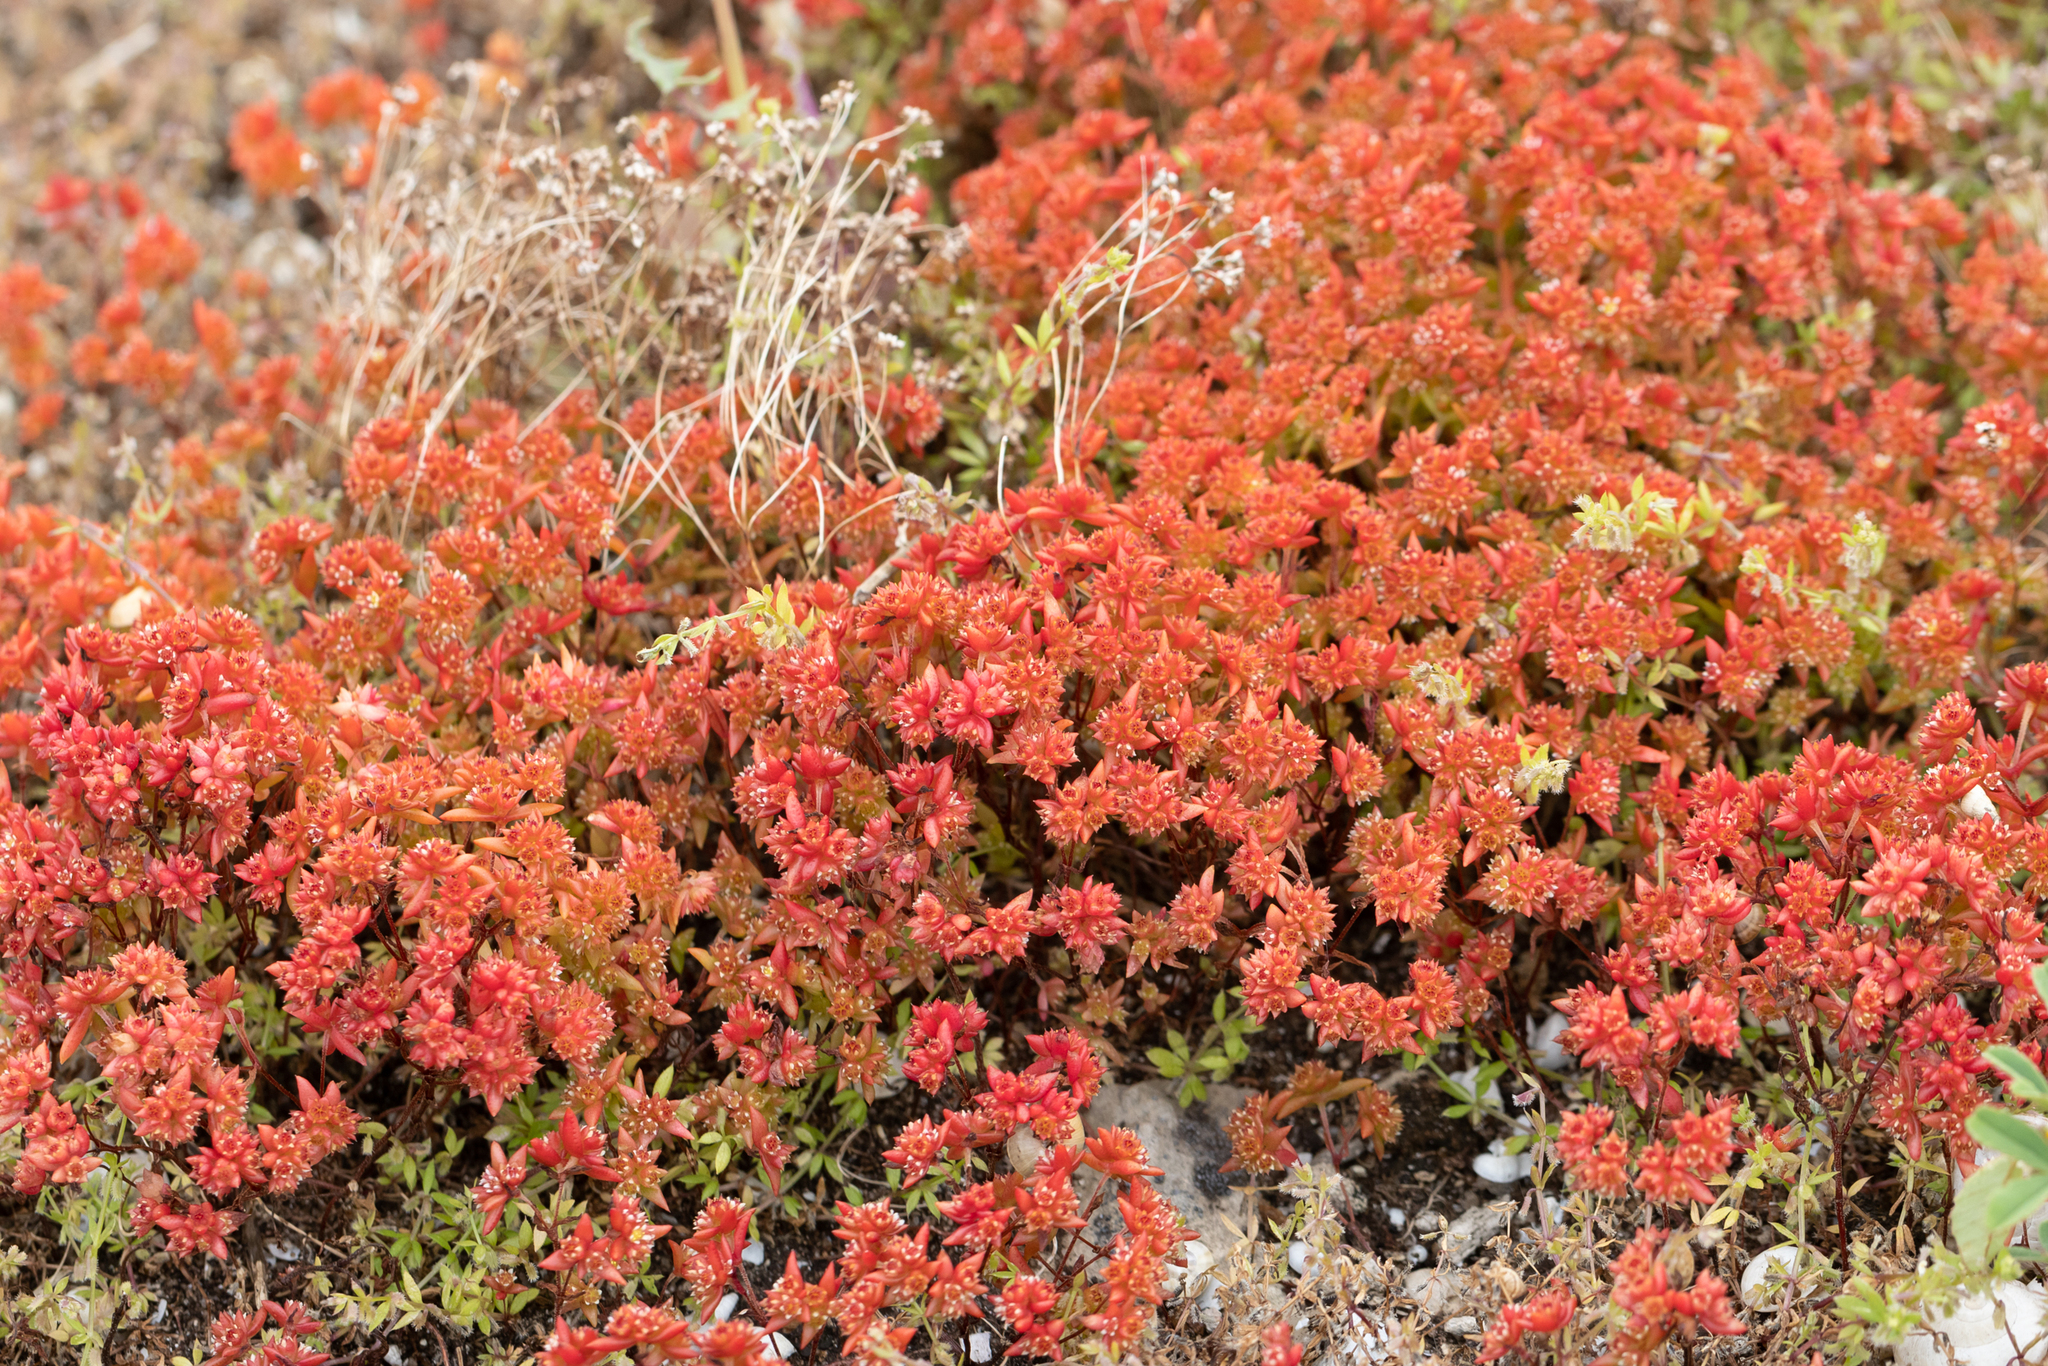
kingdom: Plantae
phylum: Tracheophyta
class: Magnoliopsida
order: Saxifragales
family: Crassulaceae
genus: Crassula
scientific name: Crassula glomerata
